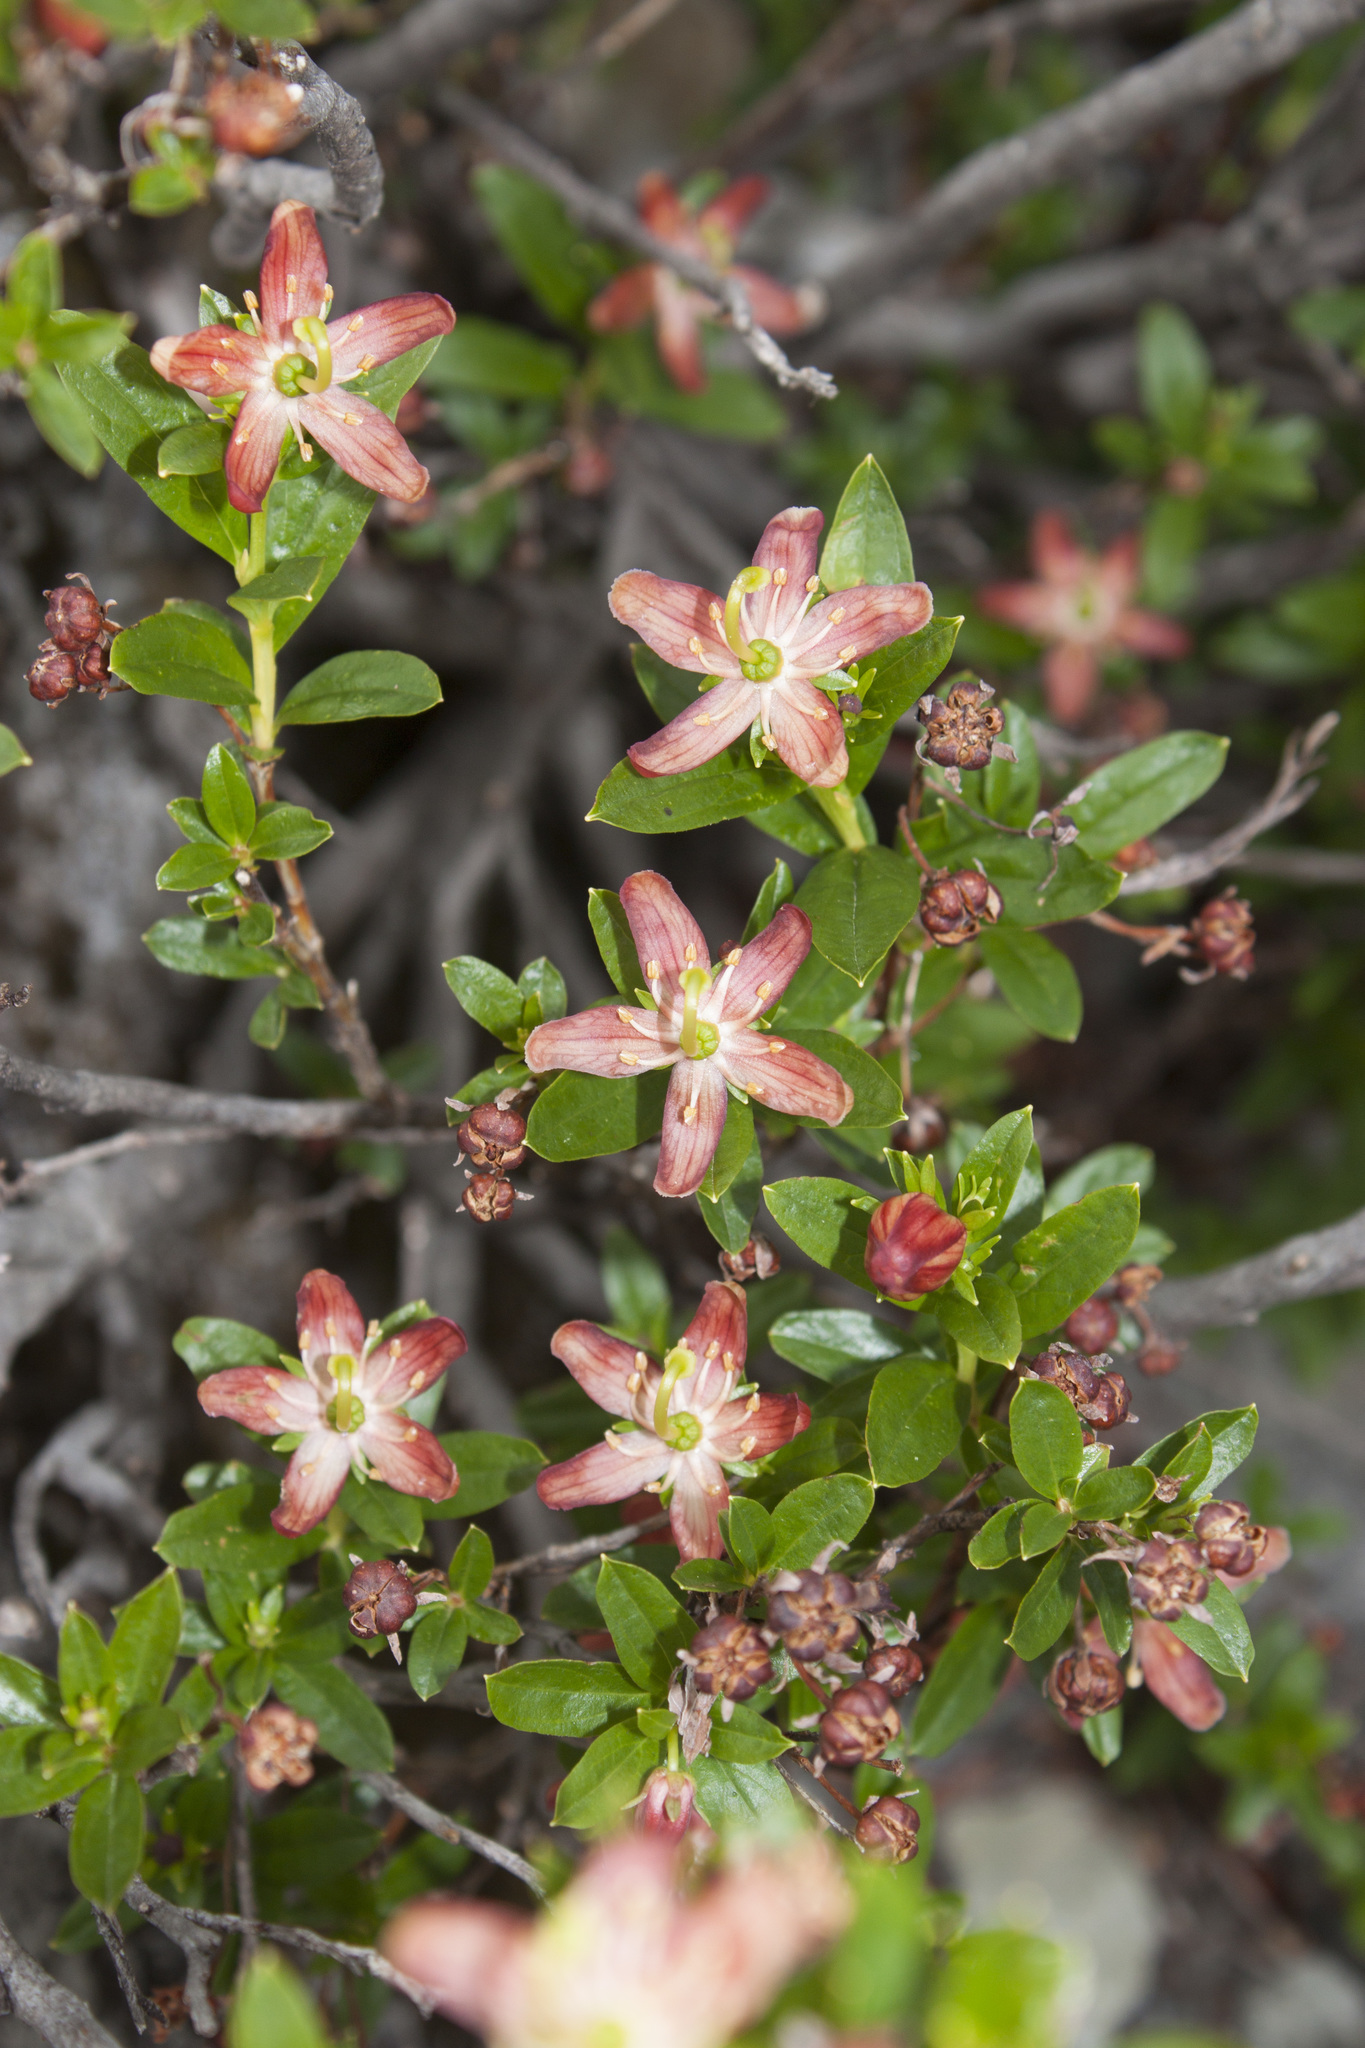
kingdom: Plantae
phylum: Tracheophyta
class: Magnoliopsida
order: Ericales
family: Ericaceae
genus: Elliottia
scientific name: Elliottia pyroliflora
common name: Copperbush
